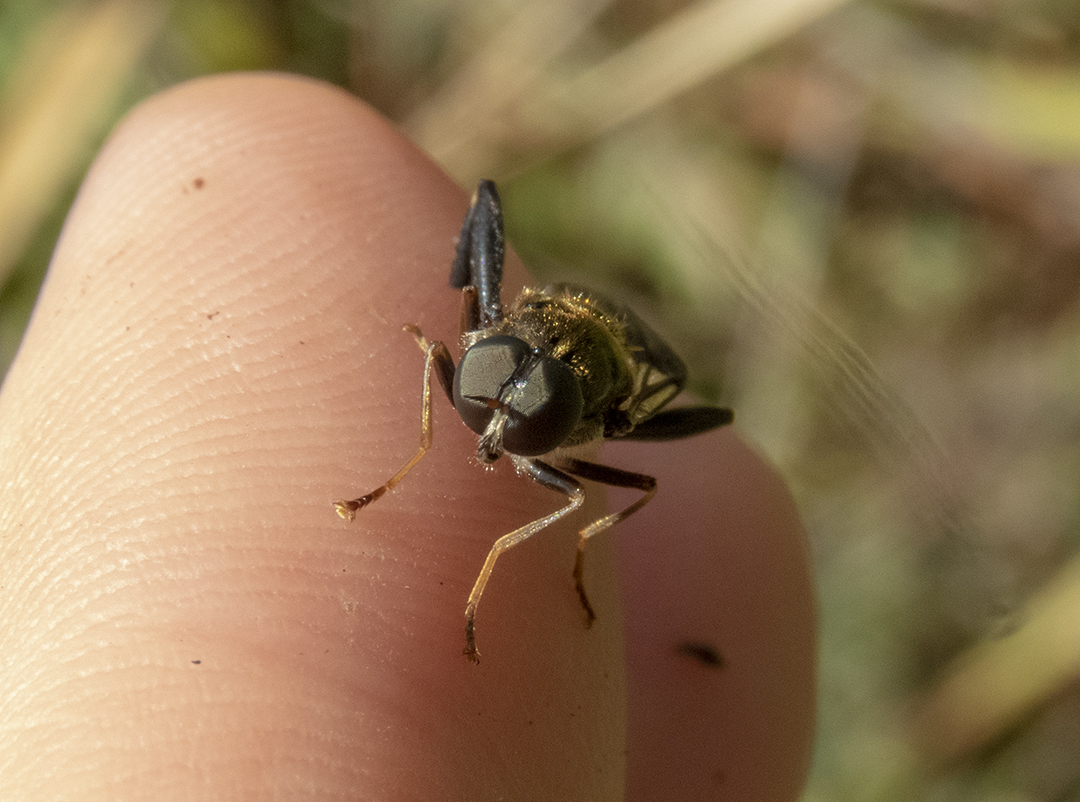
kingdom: Animalia
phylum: Arthropoda
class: Insecta
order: Diptera
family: Stratiomyidae
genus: Exaireta
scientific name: Exaireta spinigera
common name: Blue soldier fly
